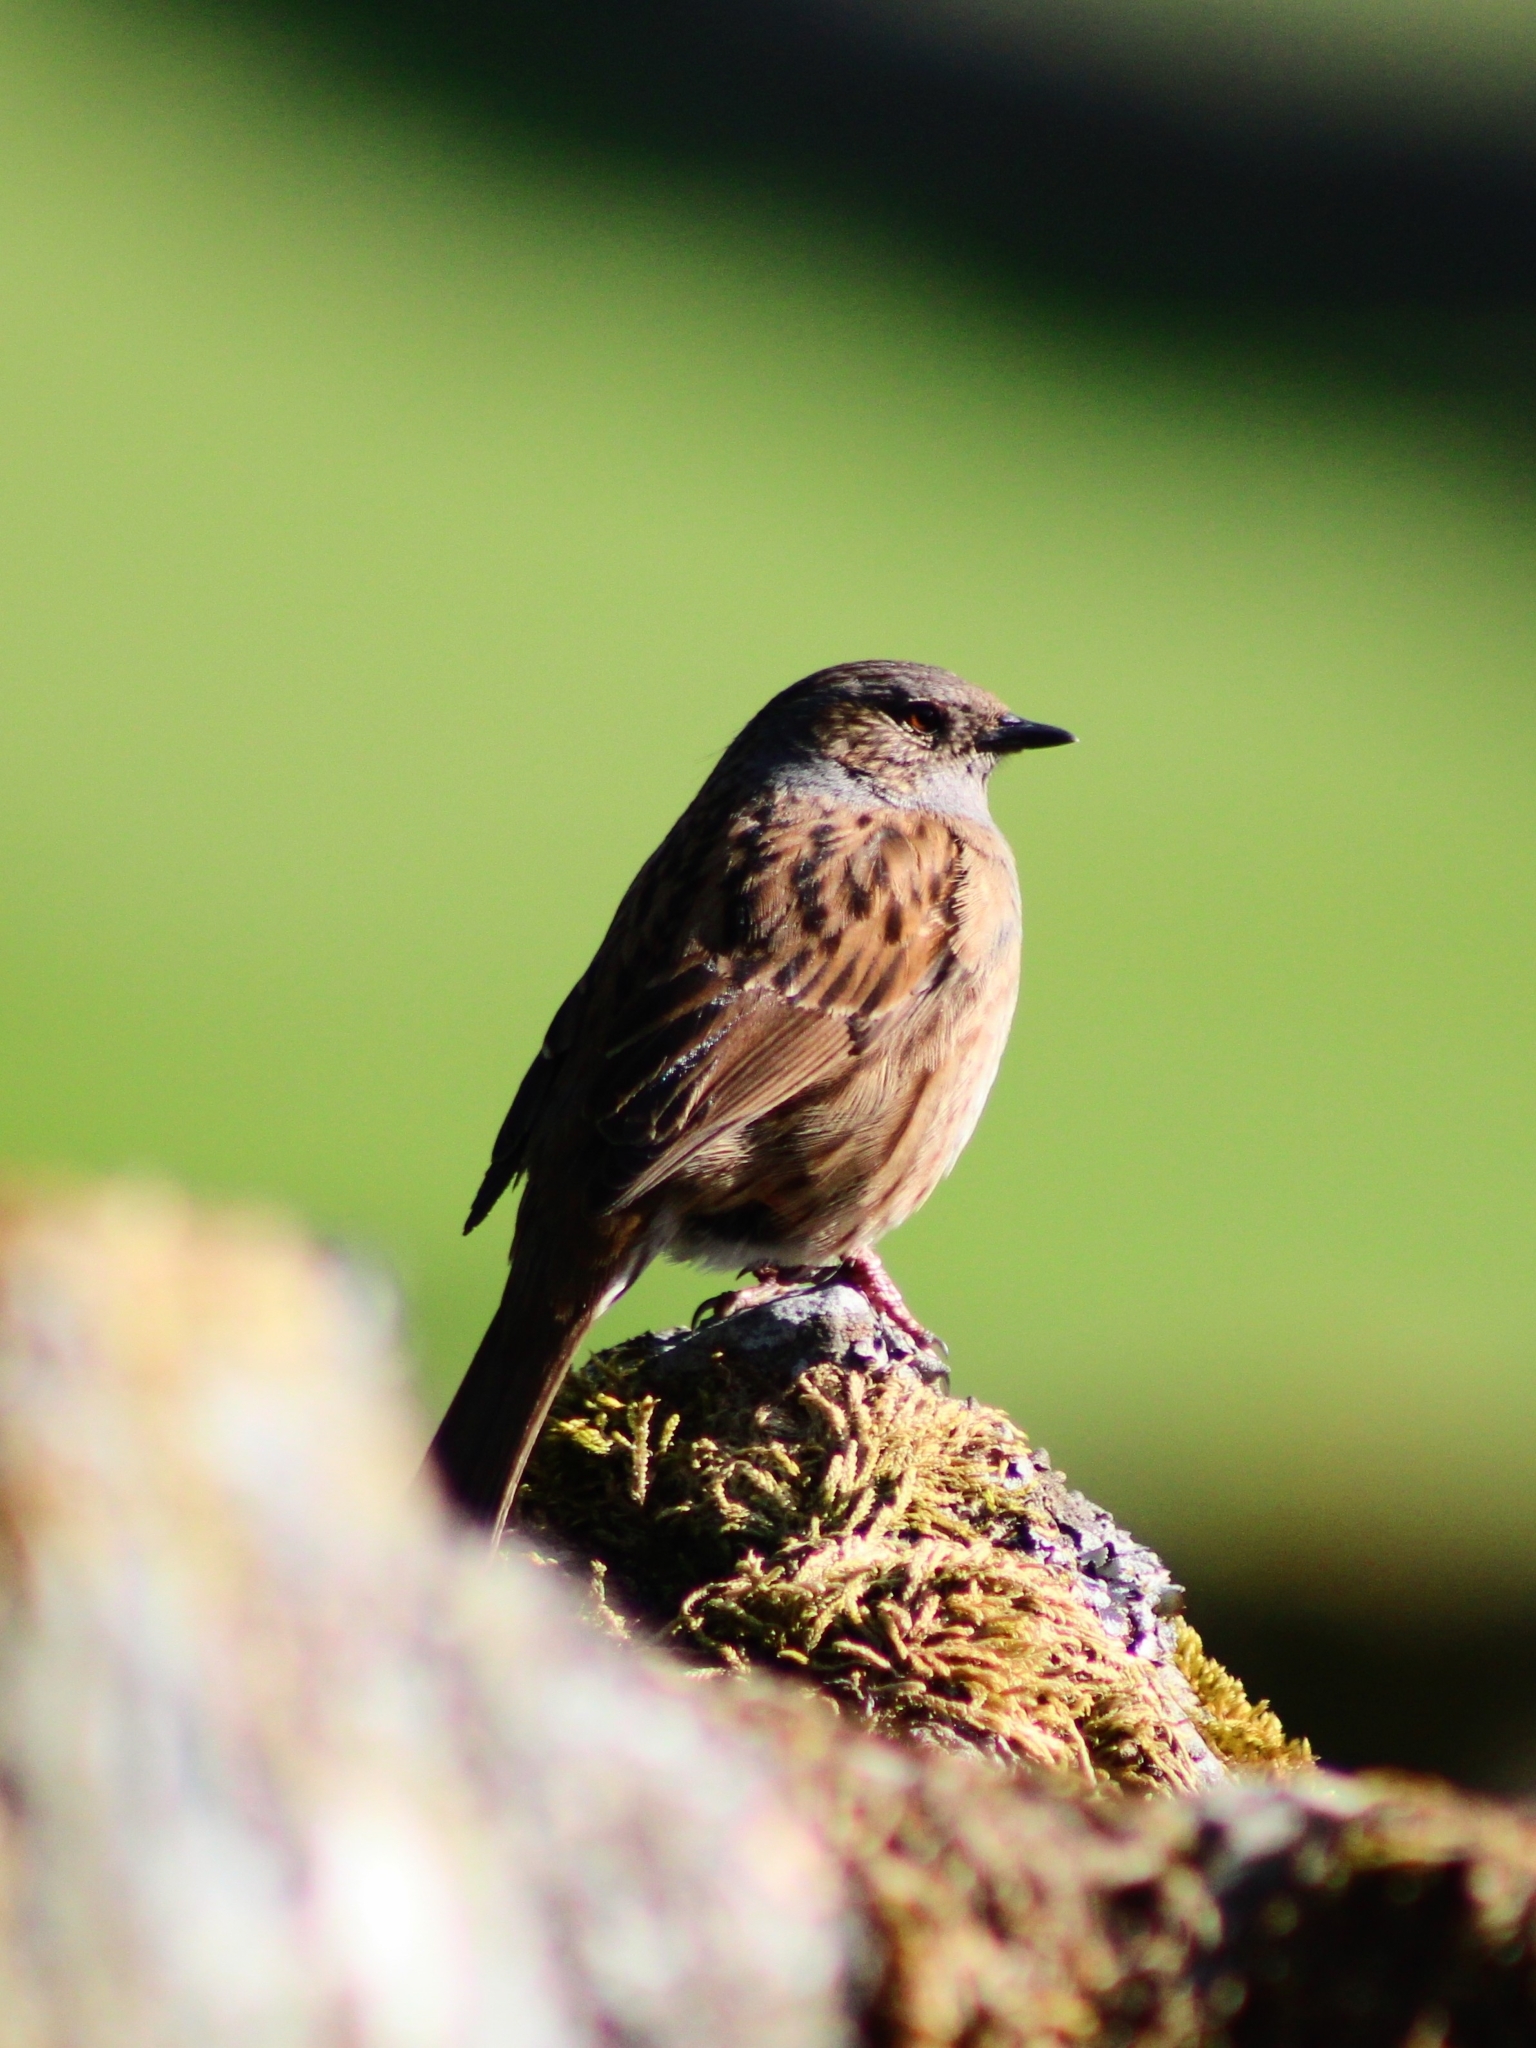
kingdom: Animalia
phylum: Chordata
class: Aves
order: Passeriformes
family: Prunellidae
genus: Prunella
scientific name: Prunella modularis
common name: Dunnock
